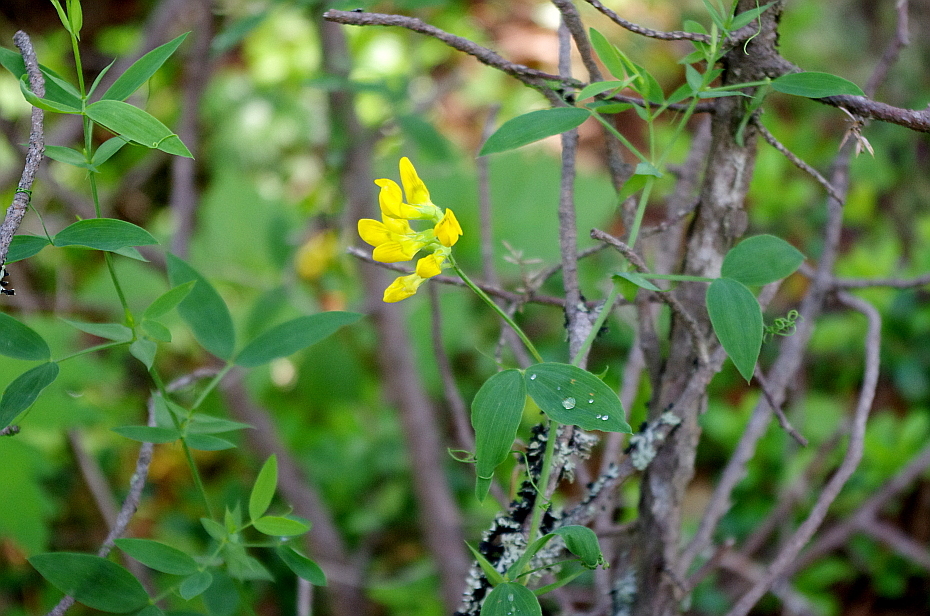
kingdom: Plantae
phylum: Tracheophyta
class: Magnoliopsida
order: Fabales
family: Fabaceae
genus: Lathyrus
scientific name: Lathyrus pratensis
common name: Meadow vetchling
